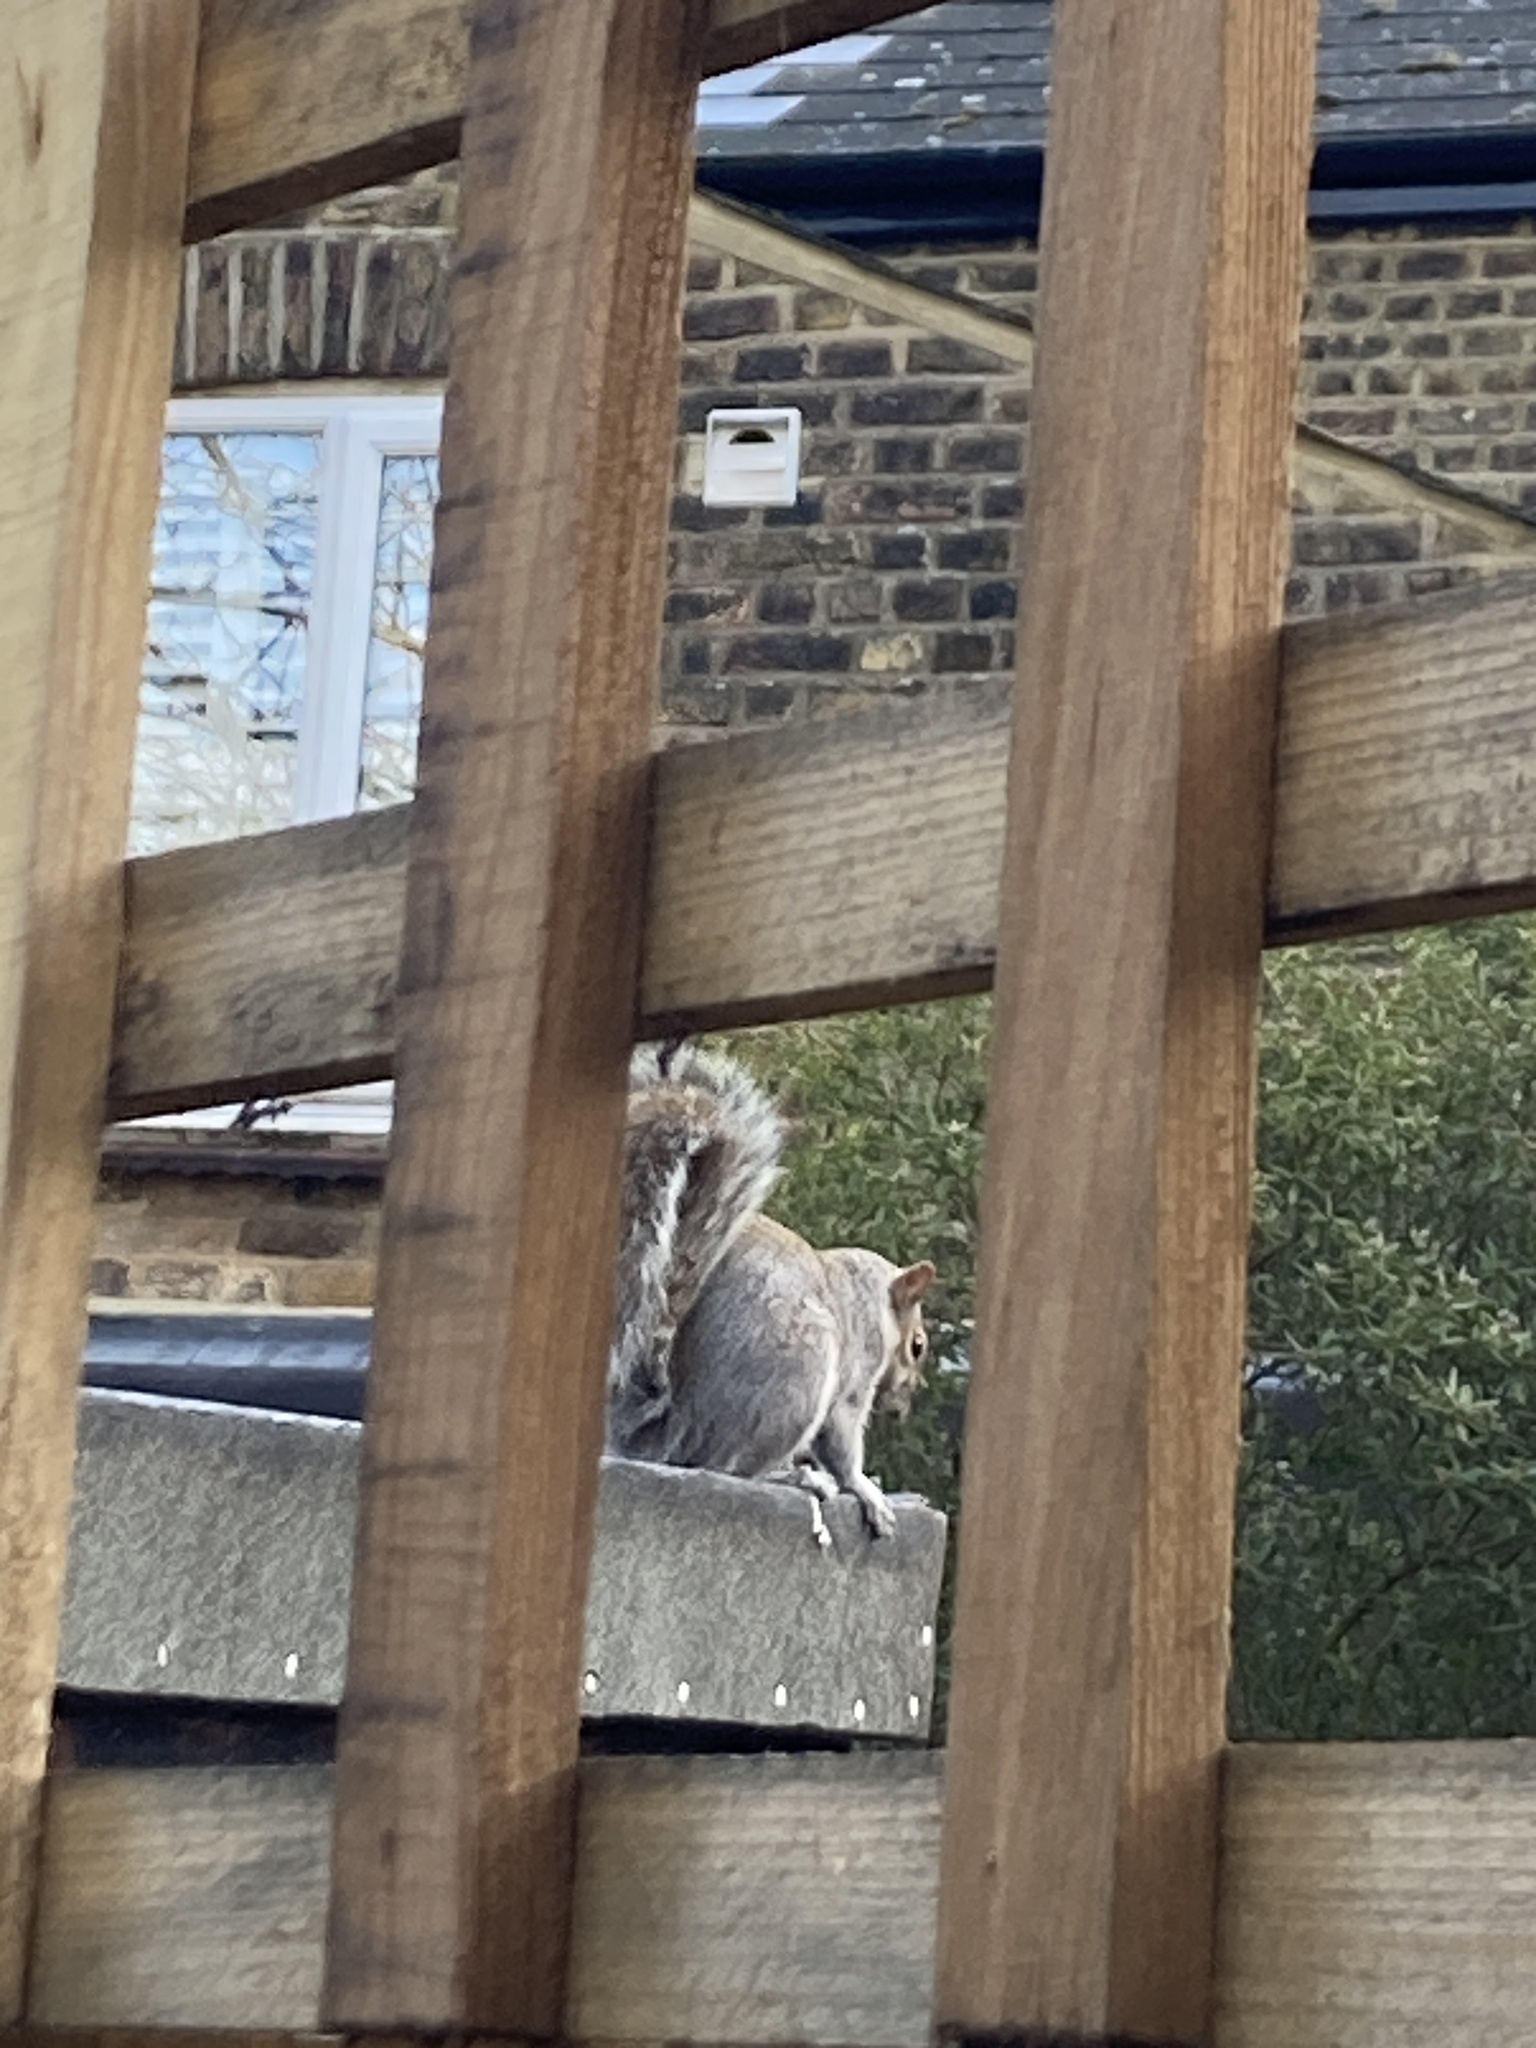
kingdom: Animalia
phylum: Chordata
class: Mammalia
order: Rodentia
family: Sciuridae
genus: Sciurus
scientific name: Sciurus carolinensis
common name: Eastern gray squirrel
